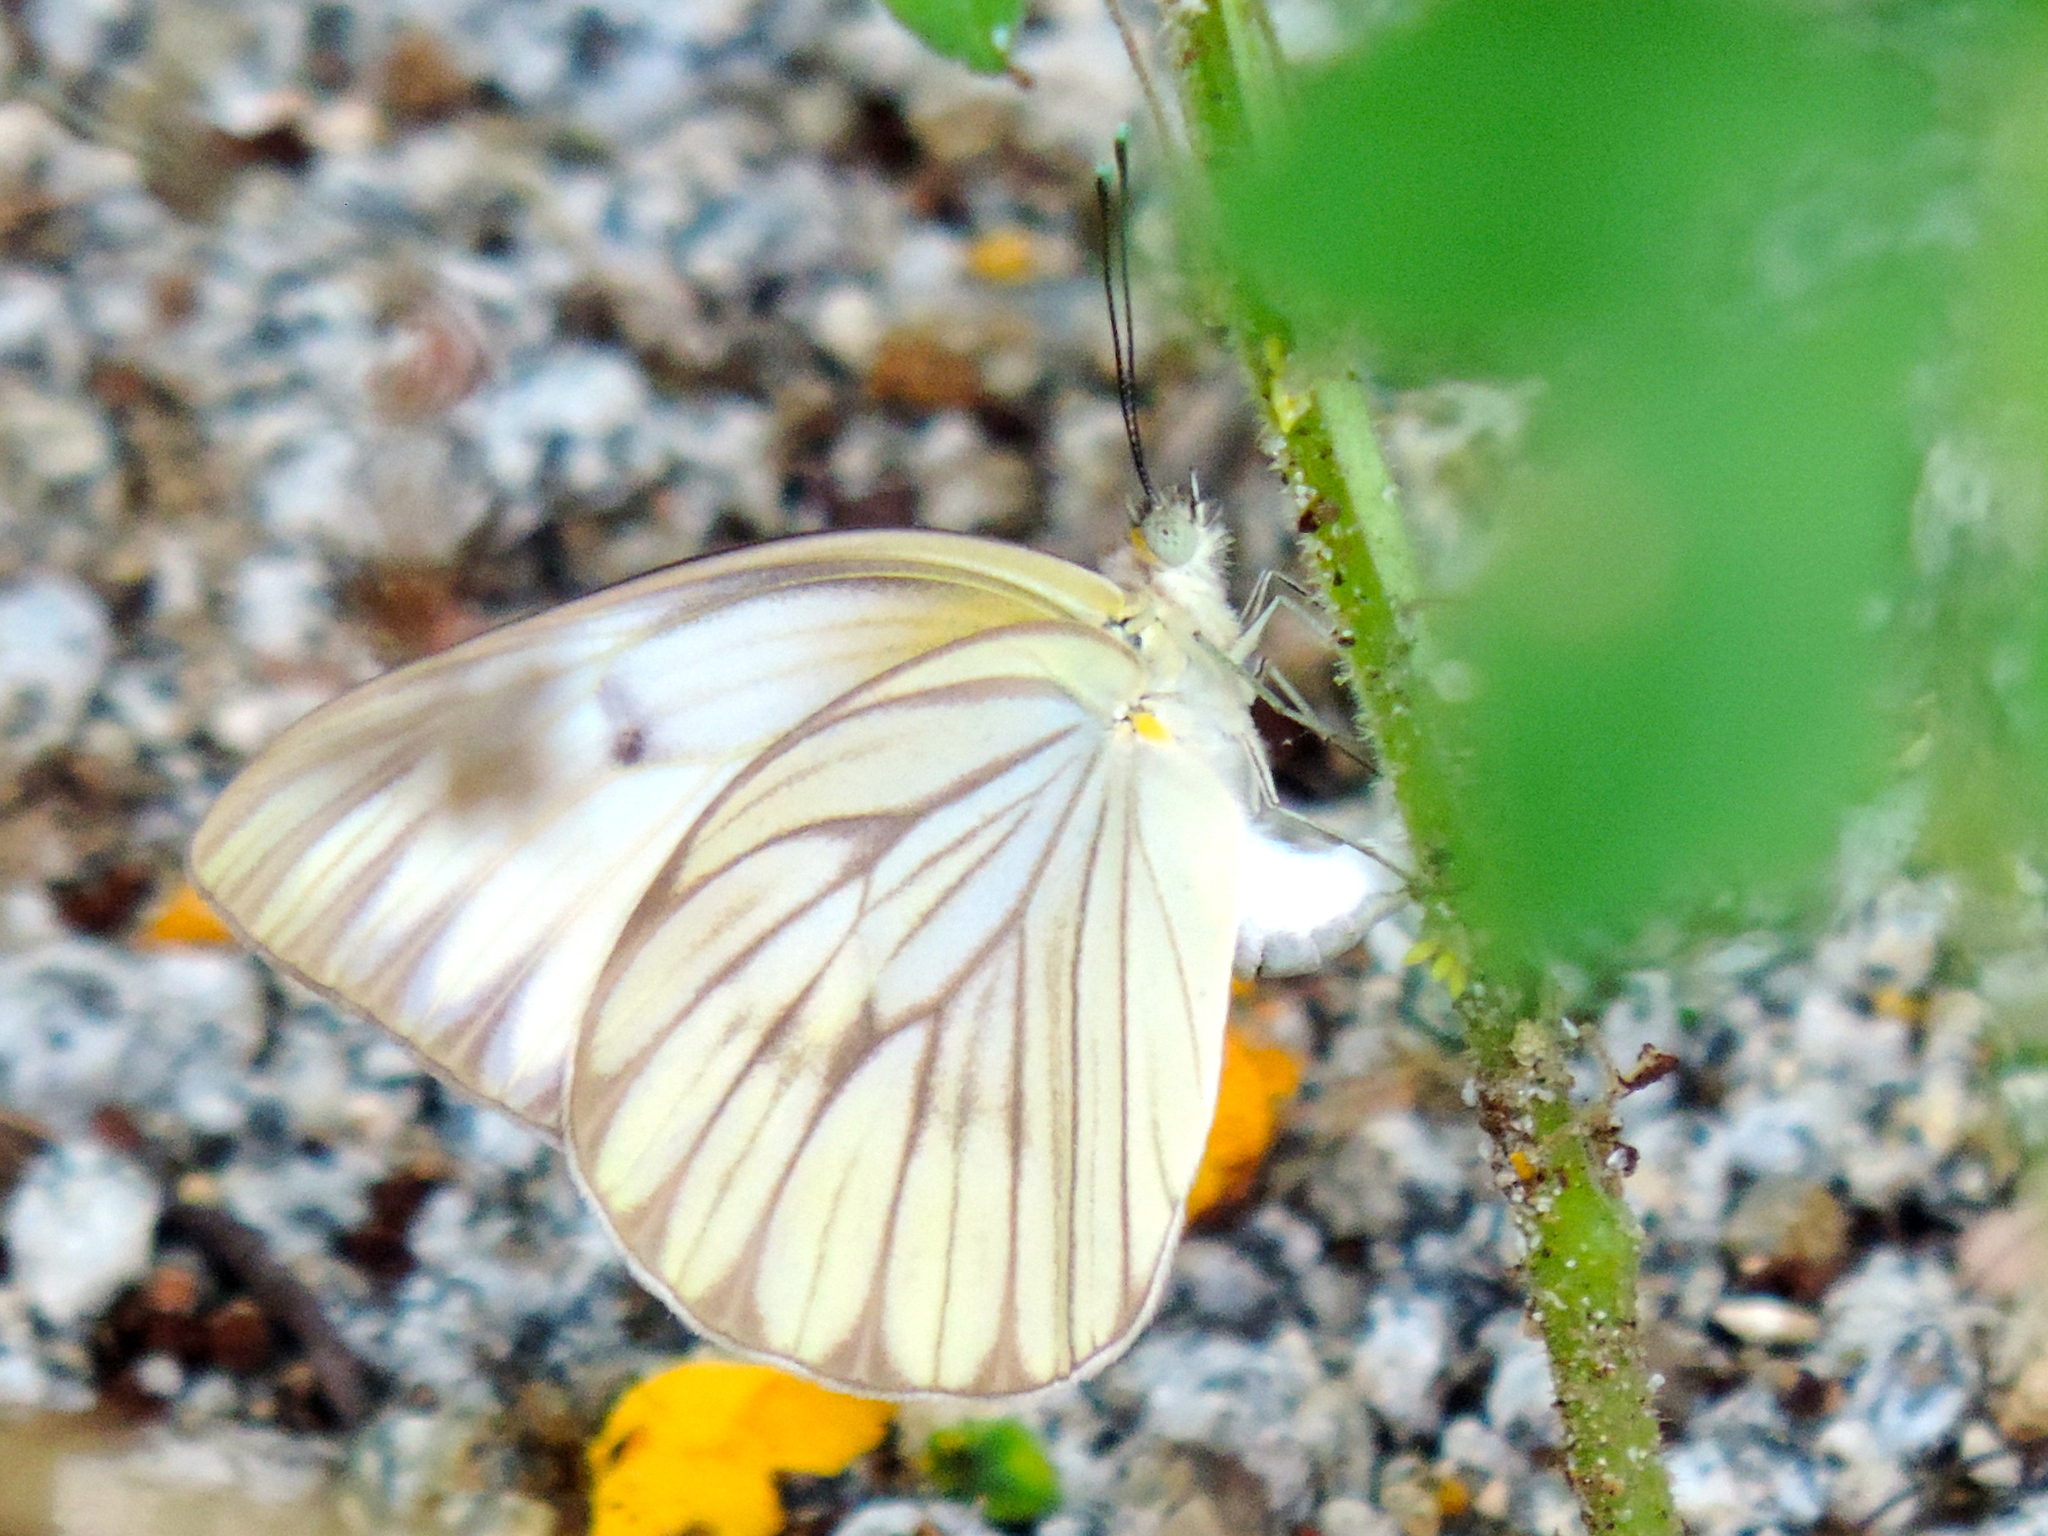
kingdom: Animalia
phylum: Arthropoda
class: Insecta
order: Lepidoptera
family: Pieridae
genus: Ascia
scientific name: Ascia monuste
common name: Great southern white
